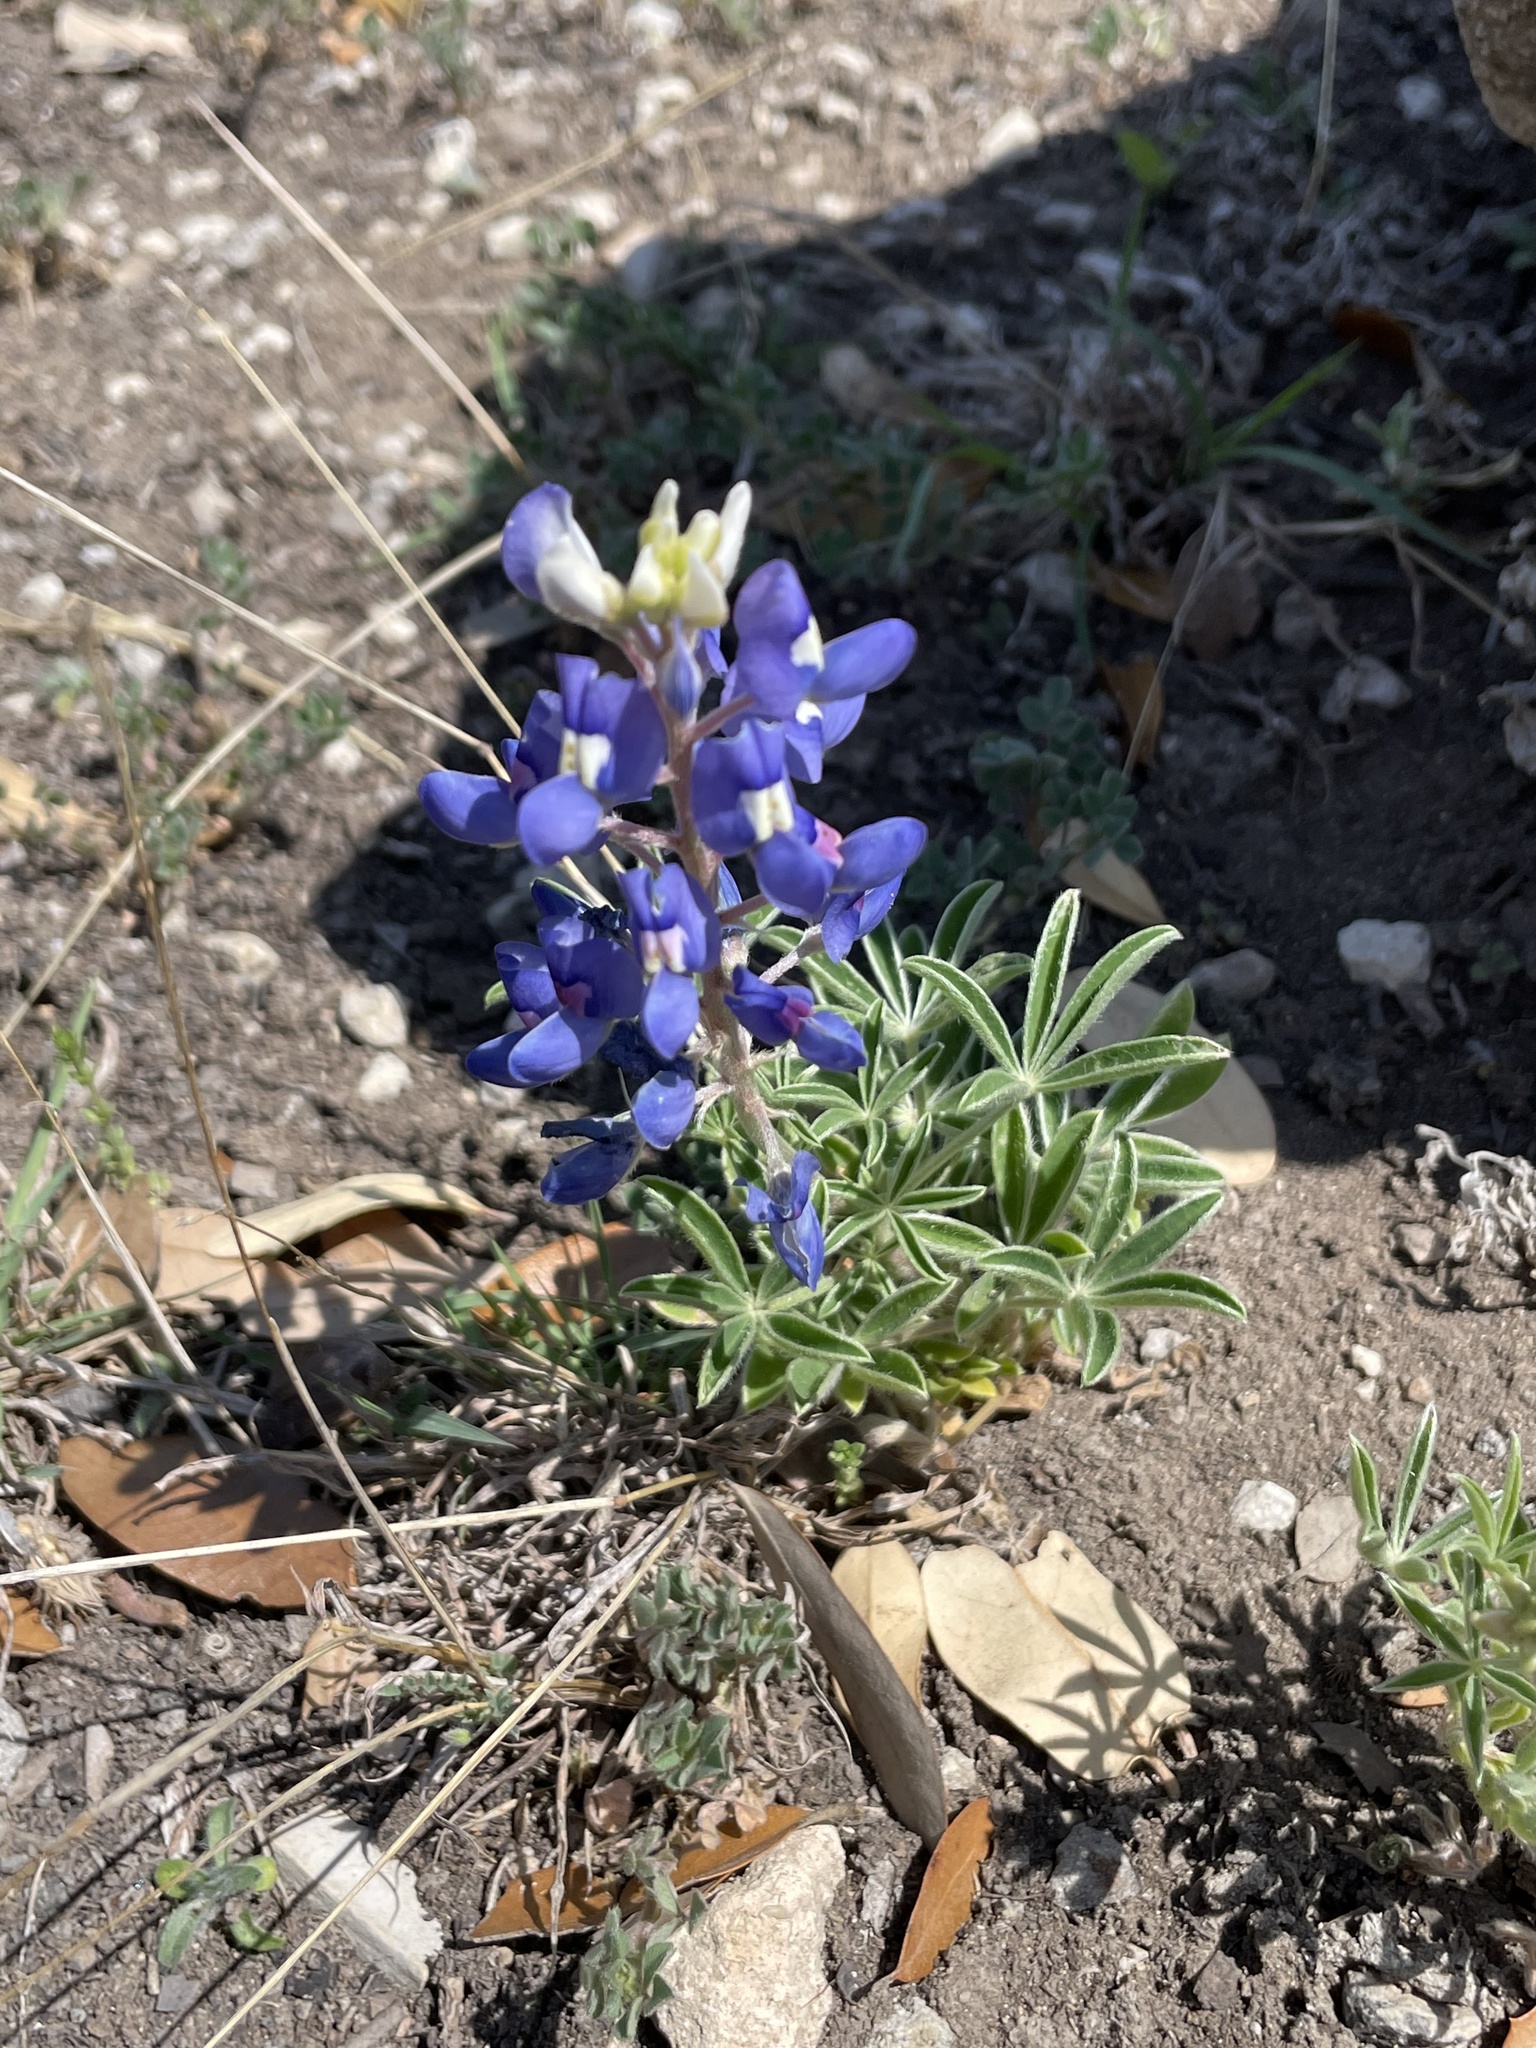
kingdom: Plantae
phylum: Tracheophyta
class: Magnoliopsida
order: Fabales
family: Fabaceae
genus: Lupinus
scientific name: Lupinus texensis
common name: Texas bluebonnet
